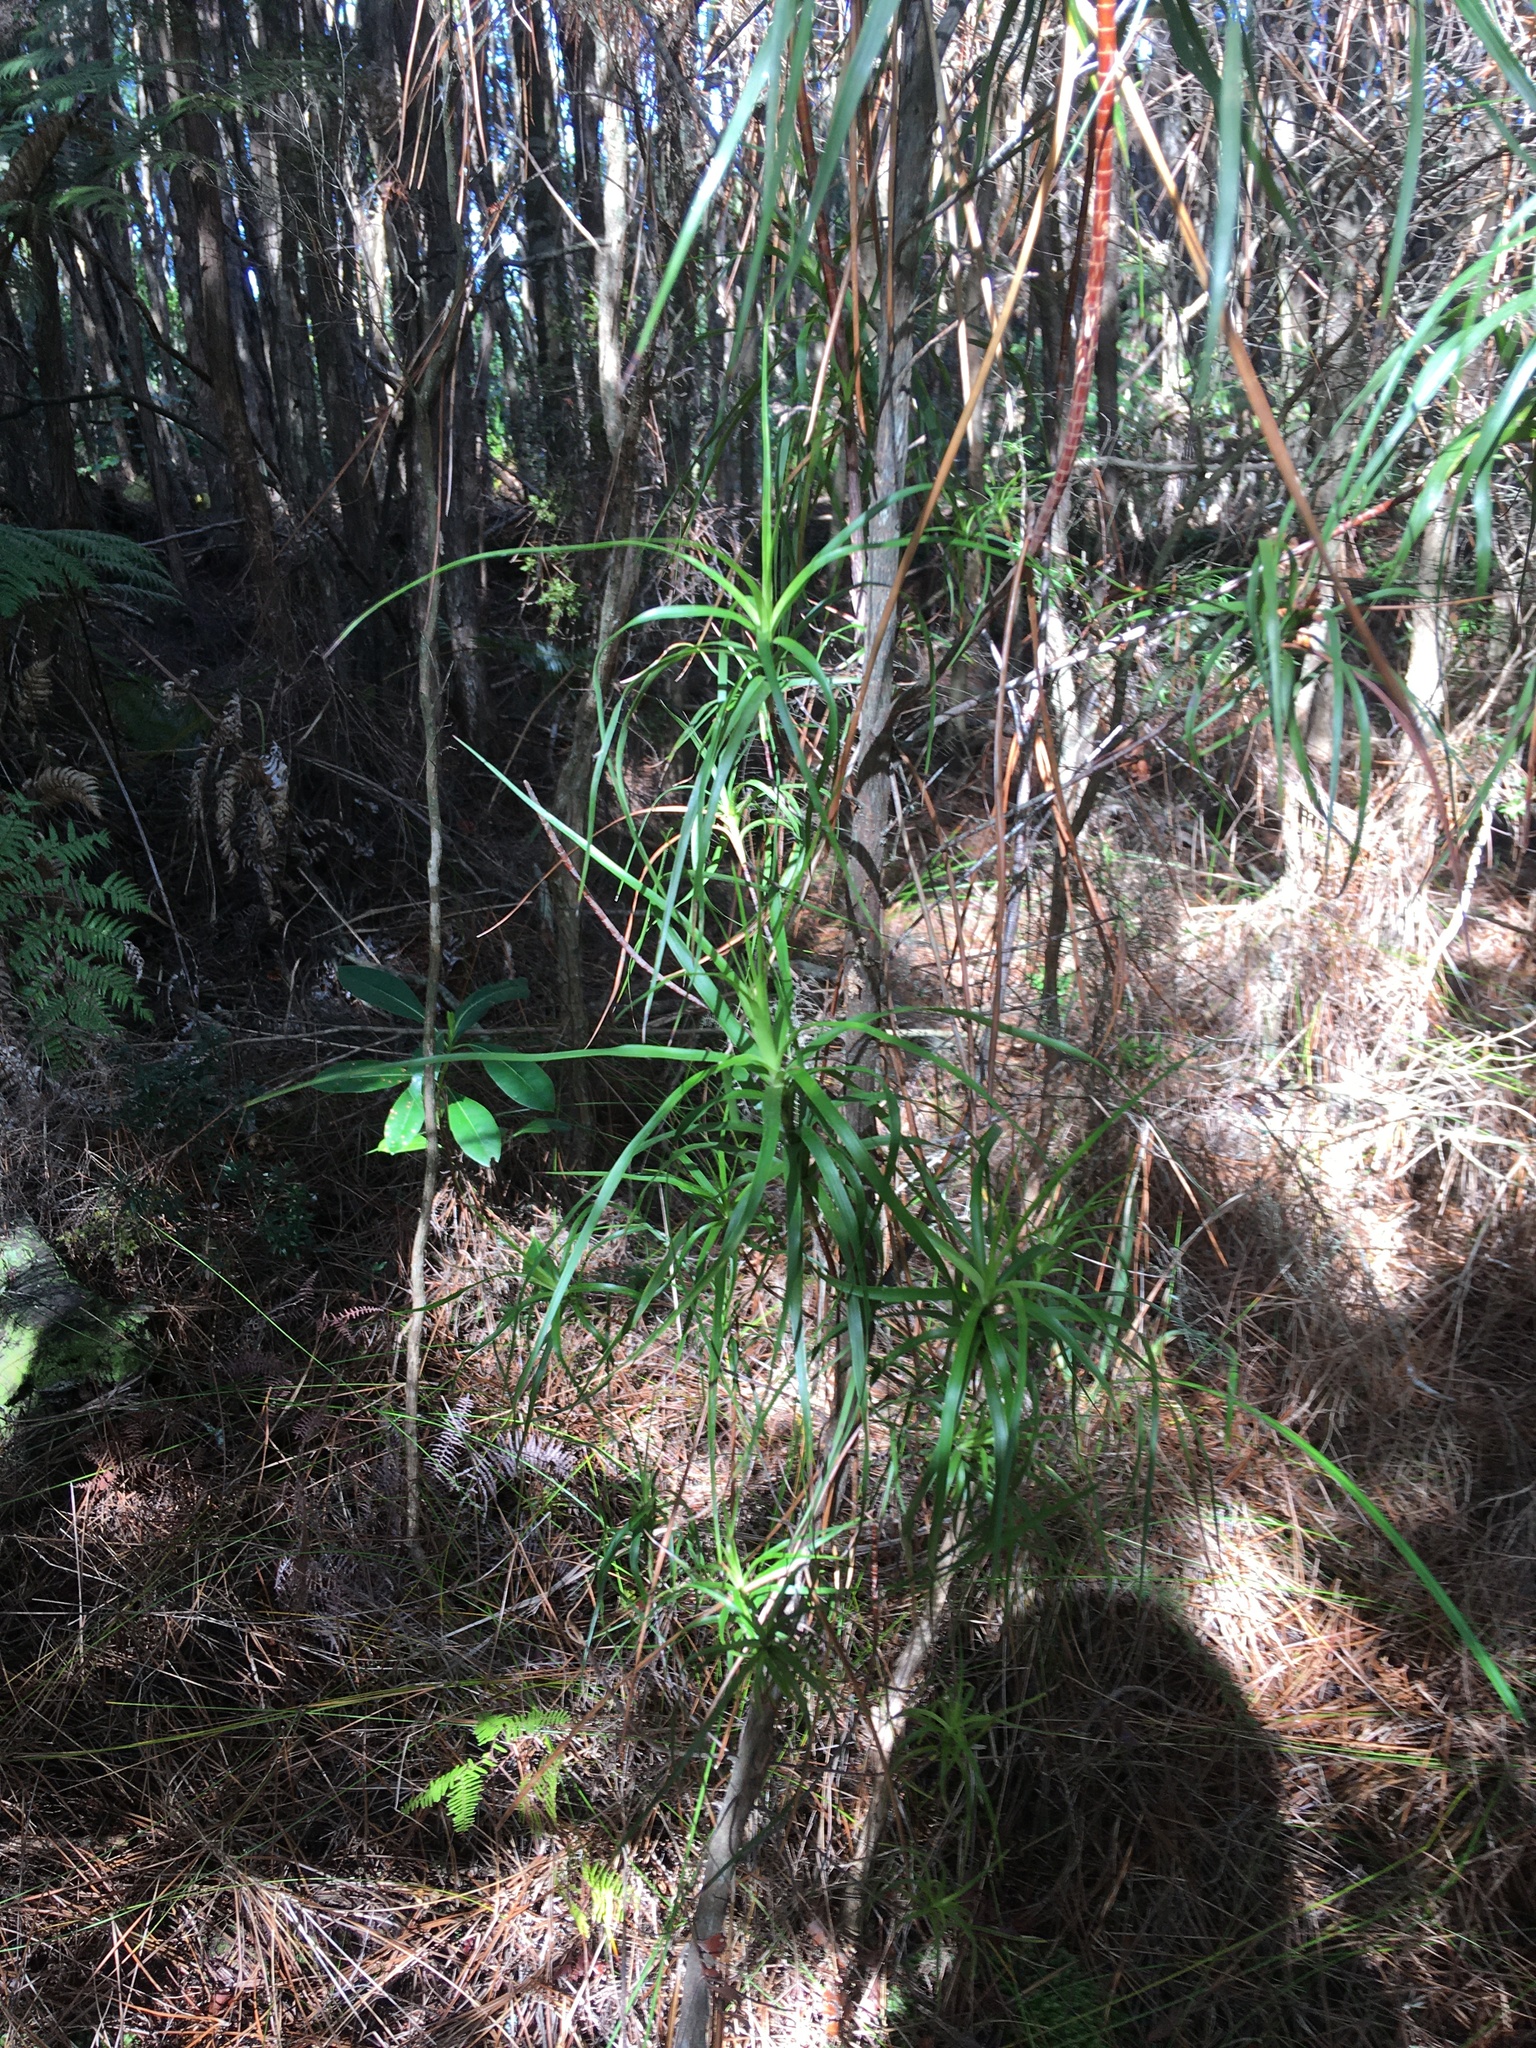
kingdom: Plantae
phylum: Tracheophyta
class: Magnoliopsida
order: Ericales
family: Ericaceae
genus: Dracophyllum
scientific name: Dracophyllum sinclairii
